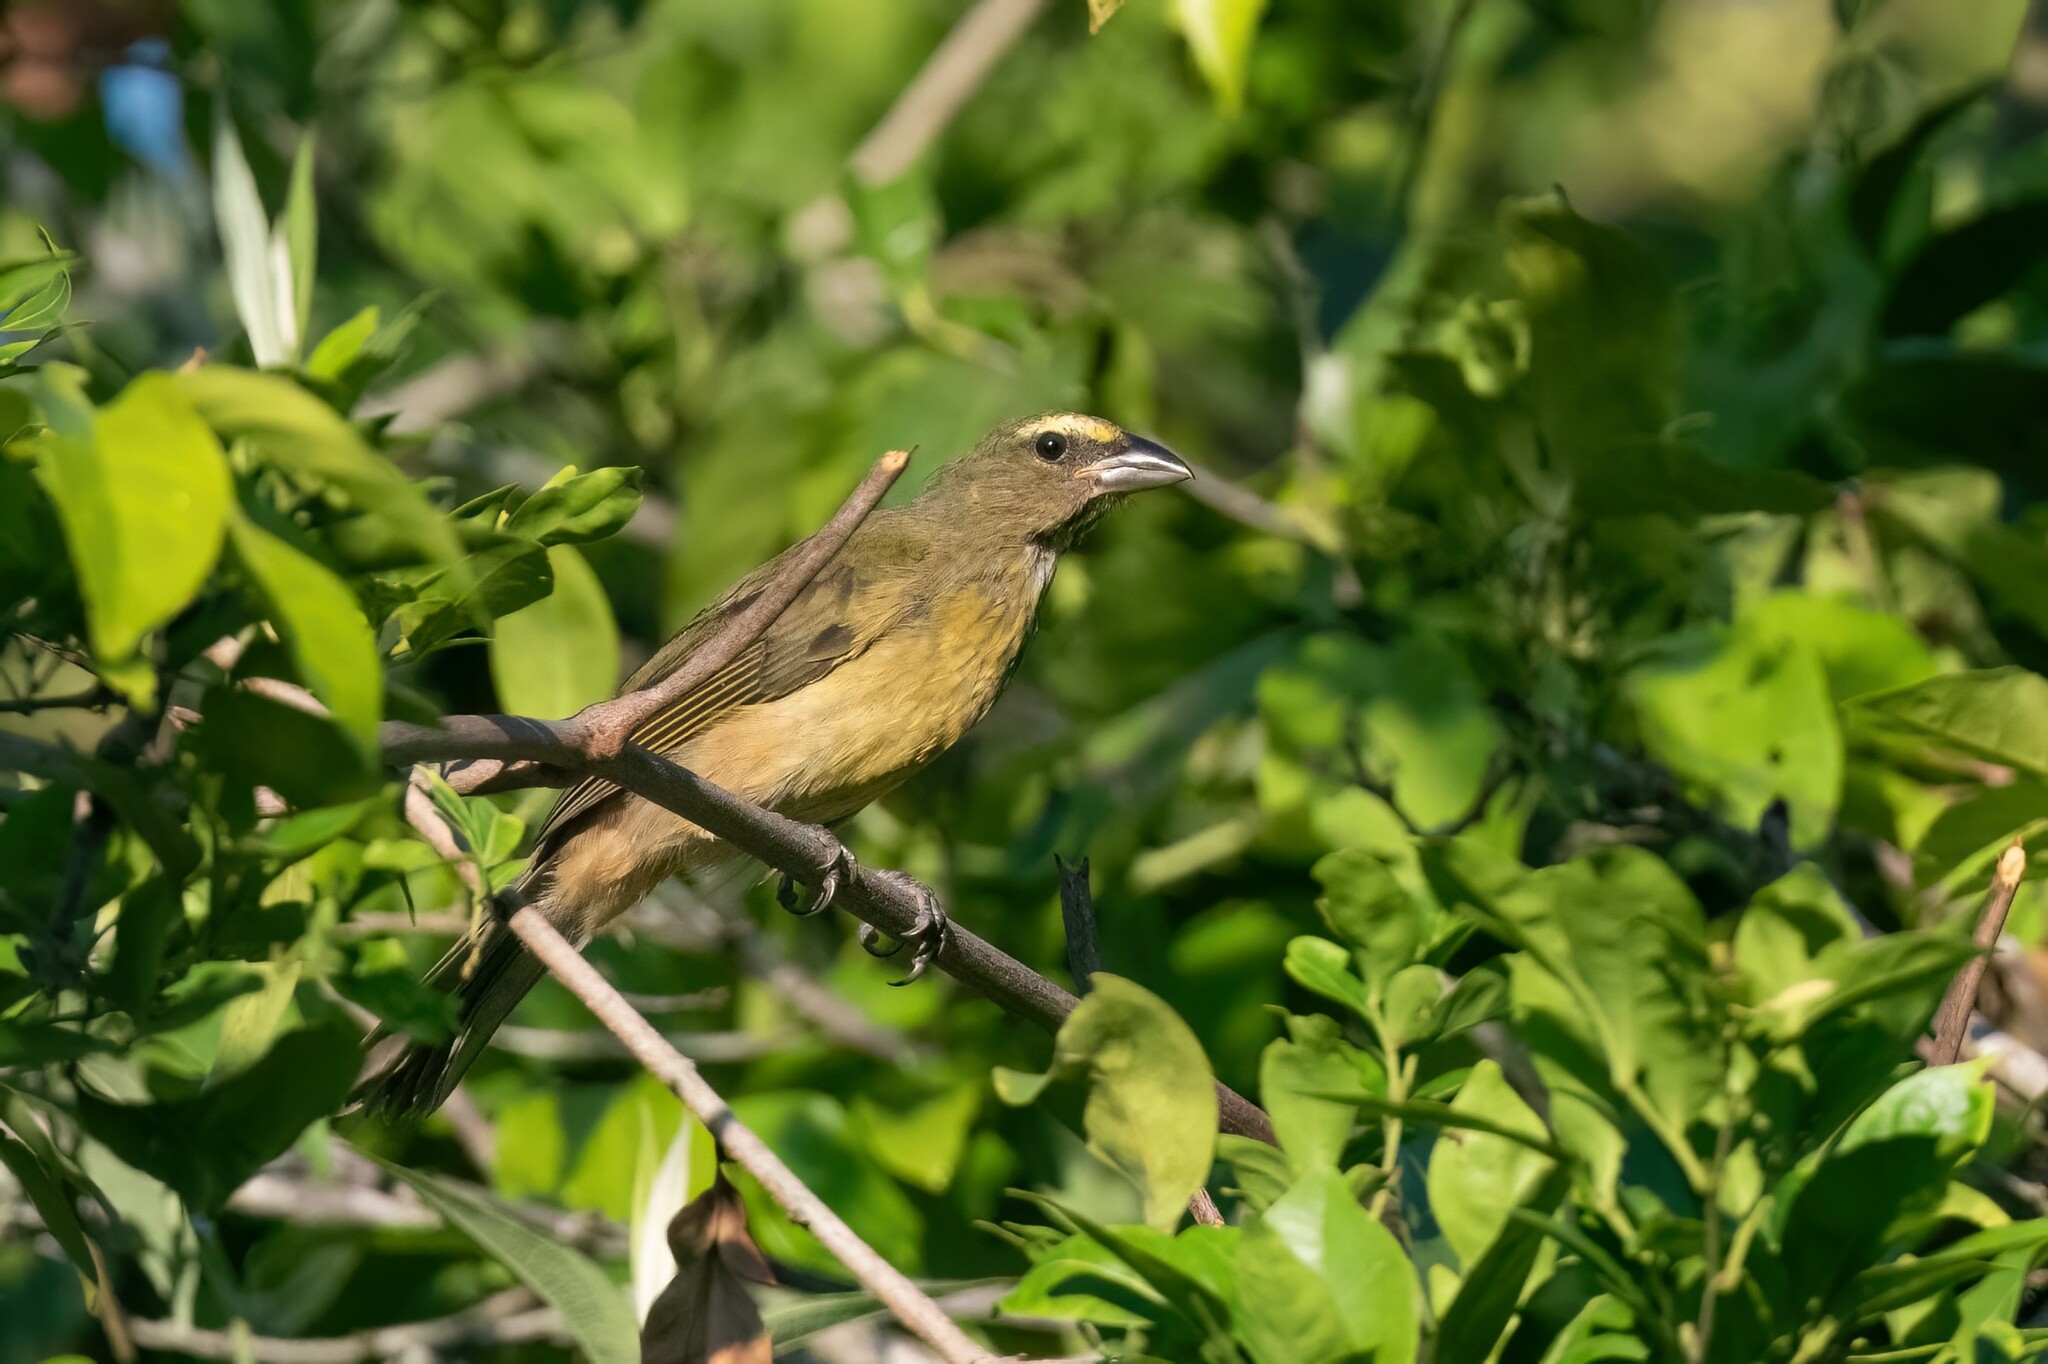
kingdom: Animalia
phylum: Chordata
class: Aves
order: Passeriformes
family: Thraupidae
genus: Saltator
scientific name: Saltator grandis
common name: Cinnamon-bellied saltator
